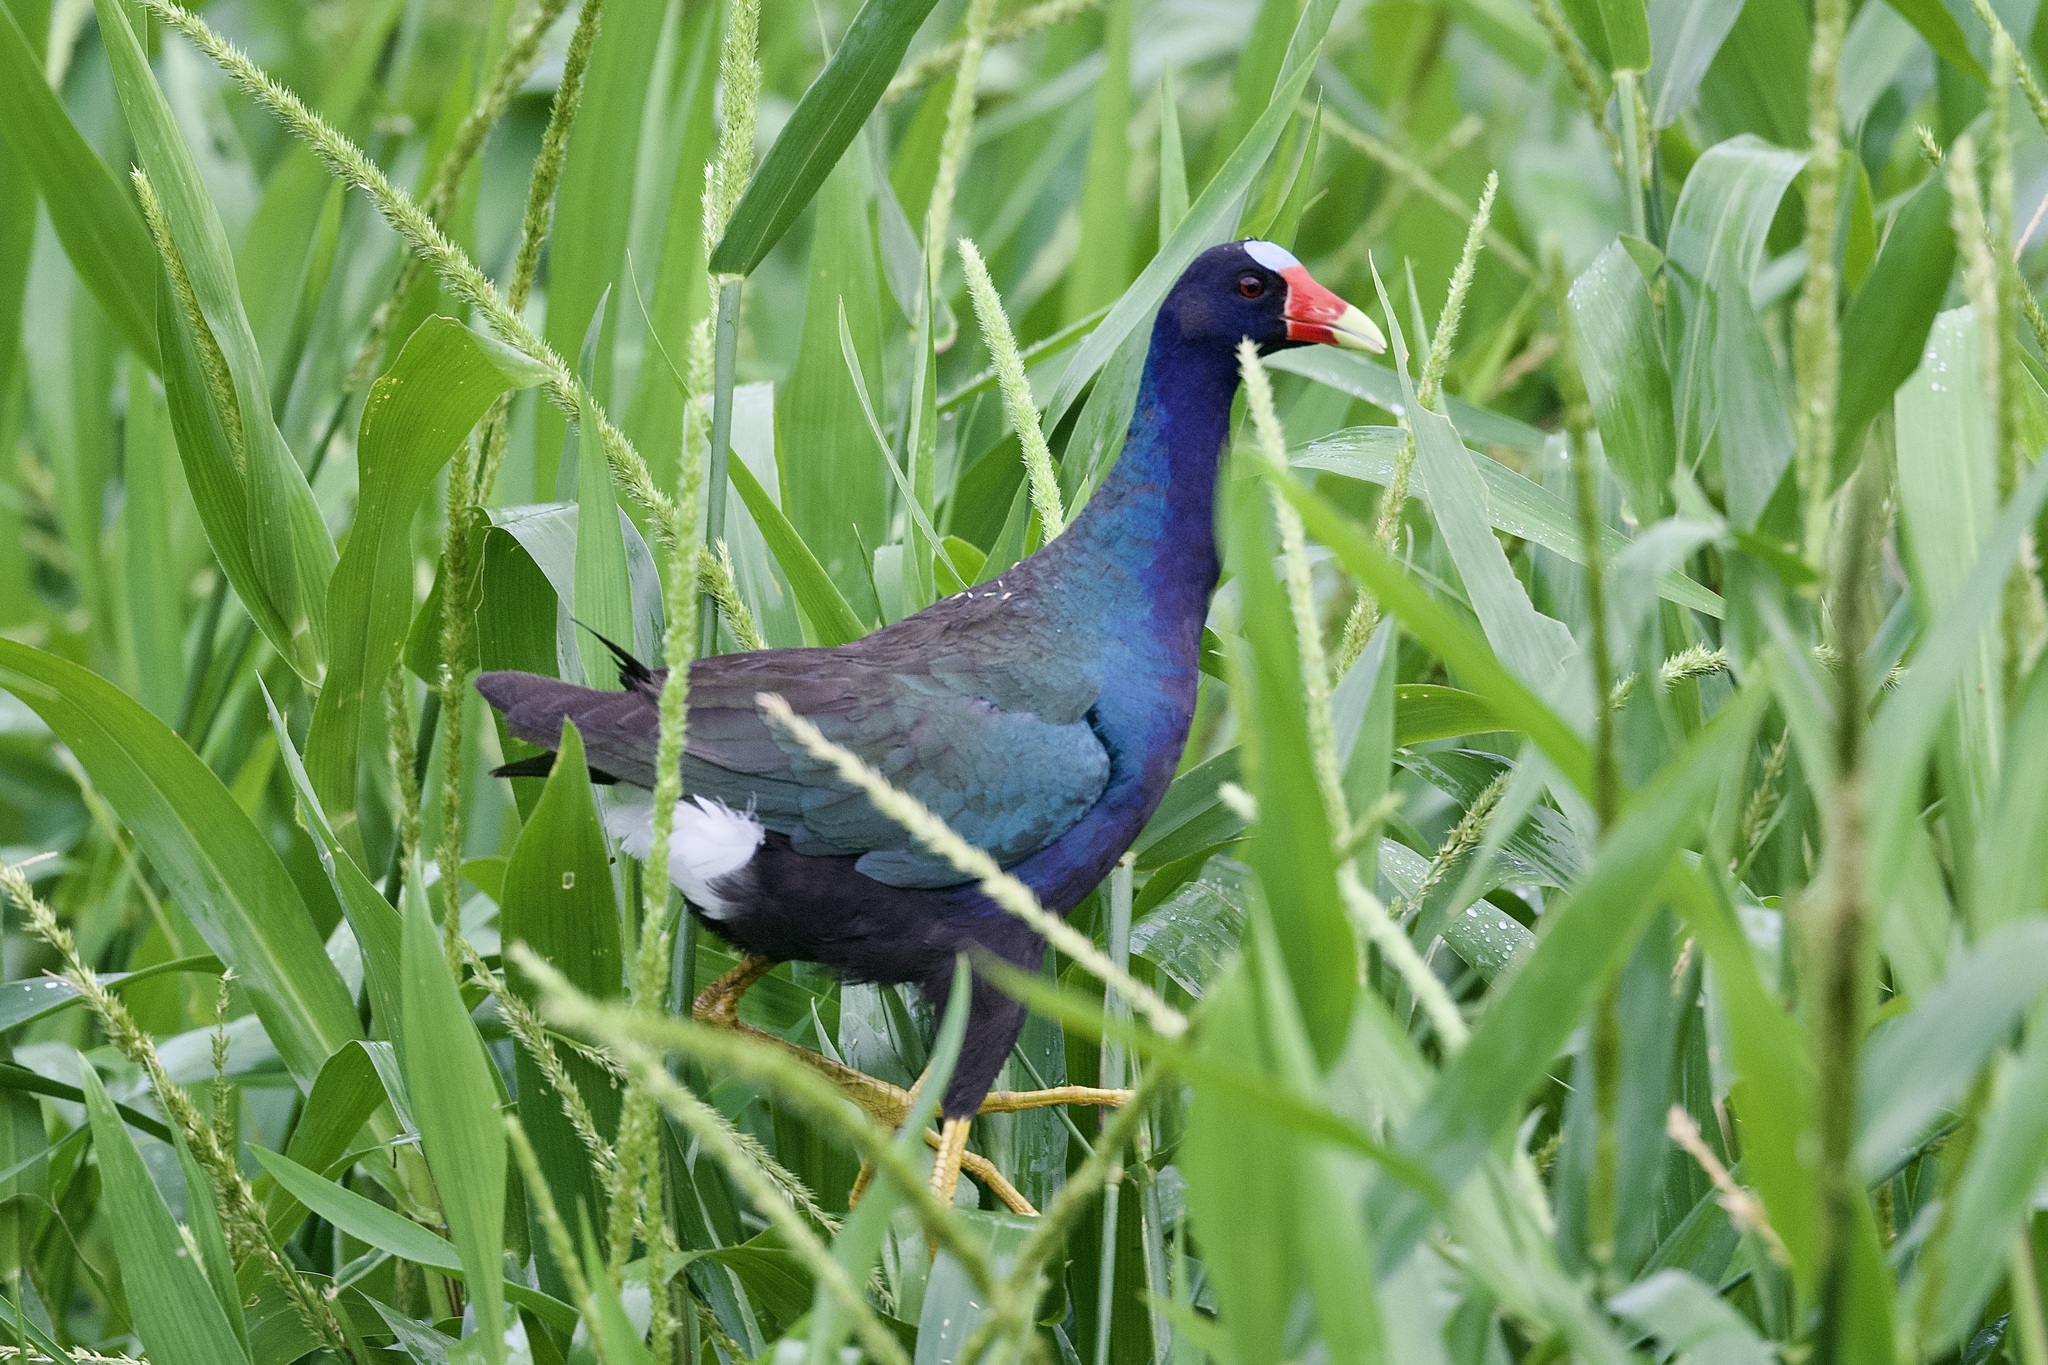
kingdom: Animalia
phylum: Chordata
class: Aves
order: Gruiformes
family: Rallidae
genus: Porphyrio
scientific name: Porphyrio martinica
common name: Purple gallinule
